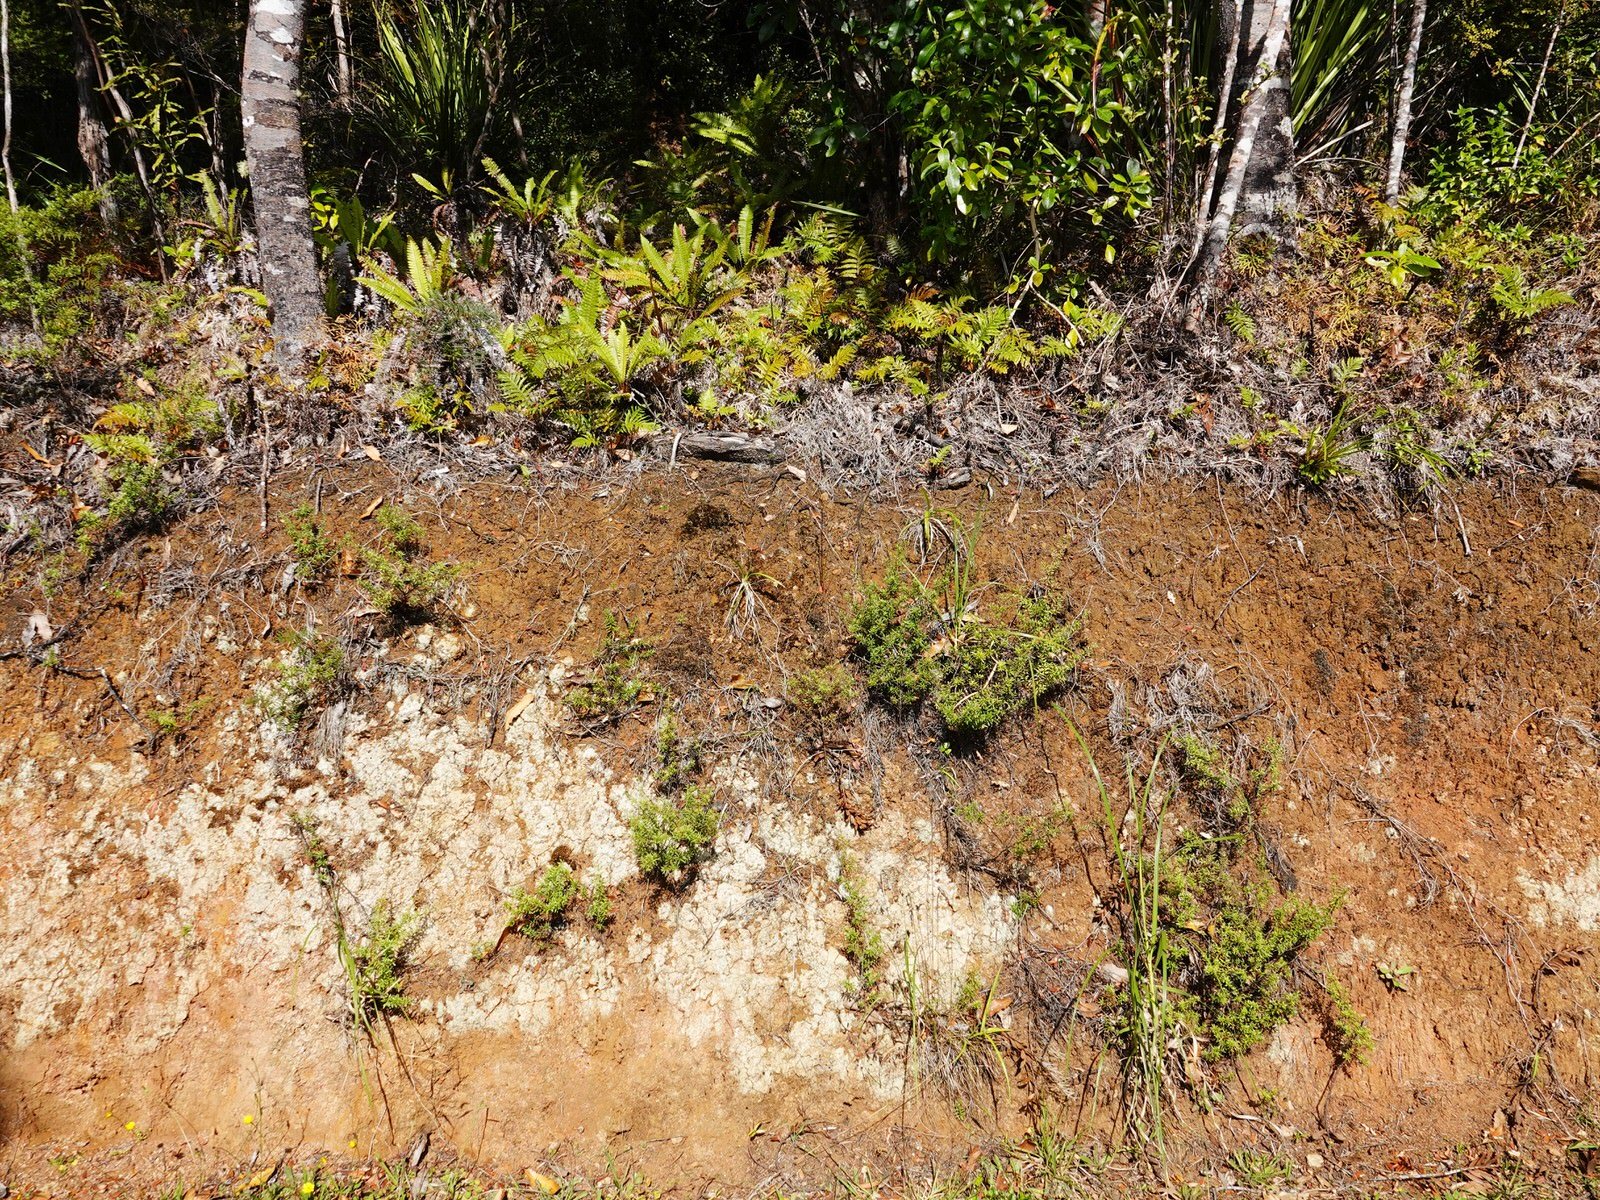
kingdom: Plantae
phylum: Tracheophyta
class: Liliopsida
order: Asparagales
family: Orchidaceae
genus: Orthoceras
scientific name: Orthoceras novae-zeelandiae
